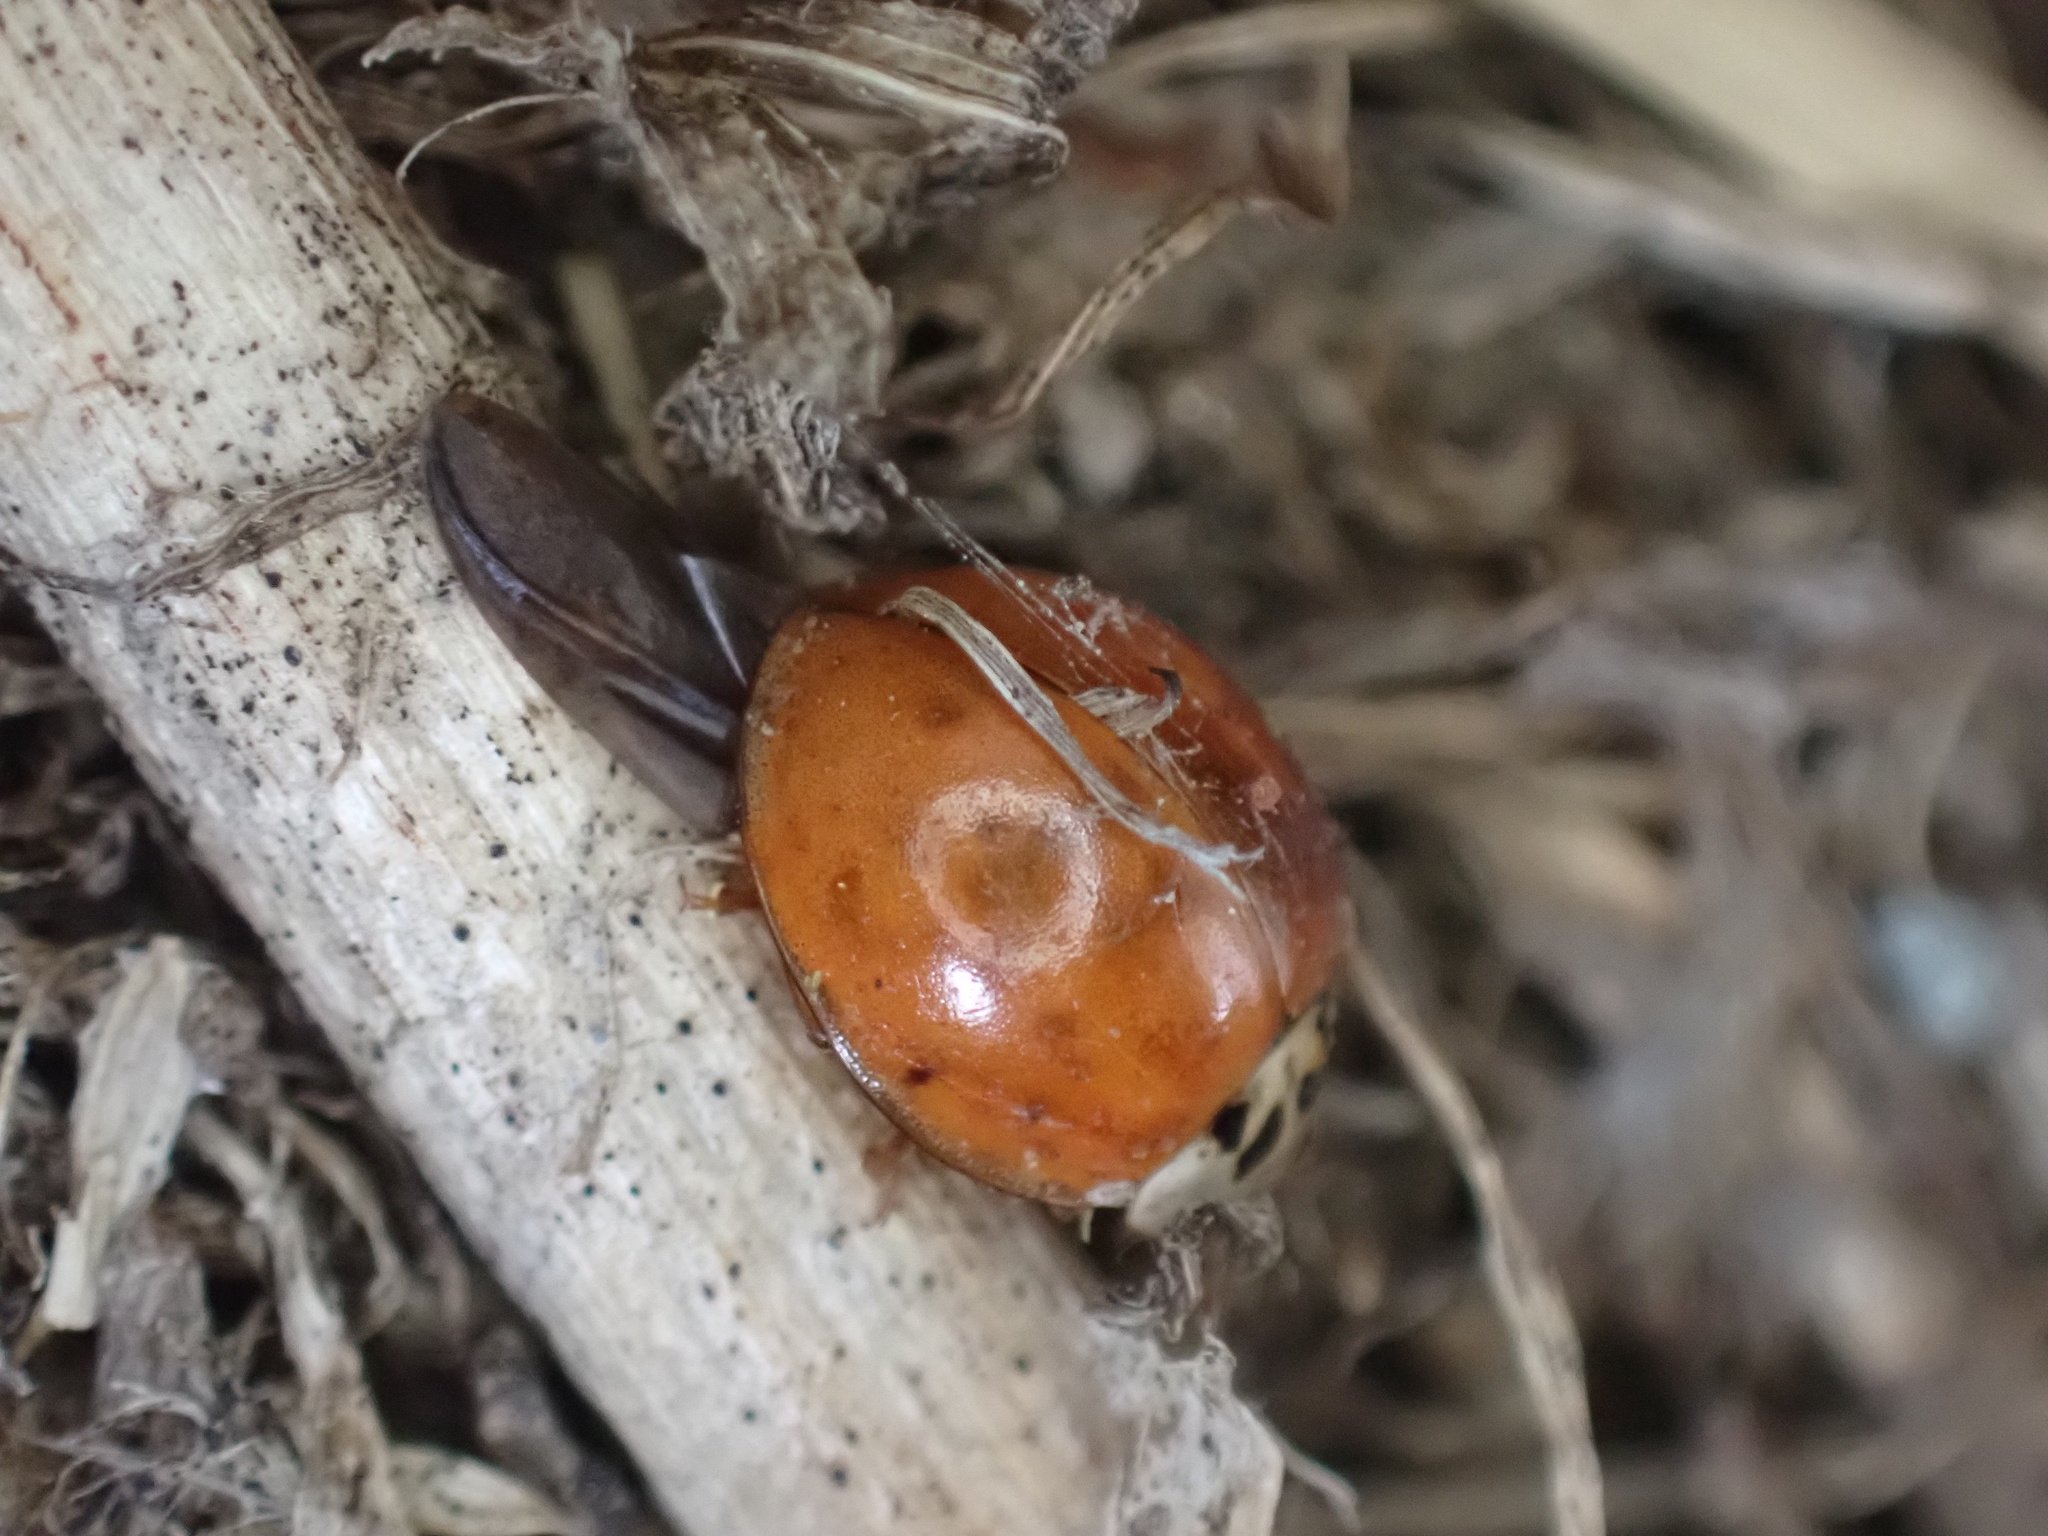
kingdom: Animalia
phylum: Arthropoda
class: Insecta
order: Coleoptera
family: Coccinellidae
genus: Harmonia
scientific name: Harmonia axyridis
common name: Harlequin ladybird
